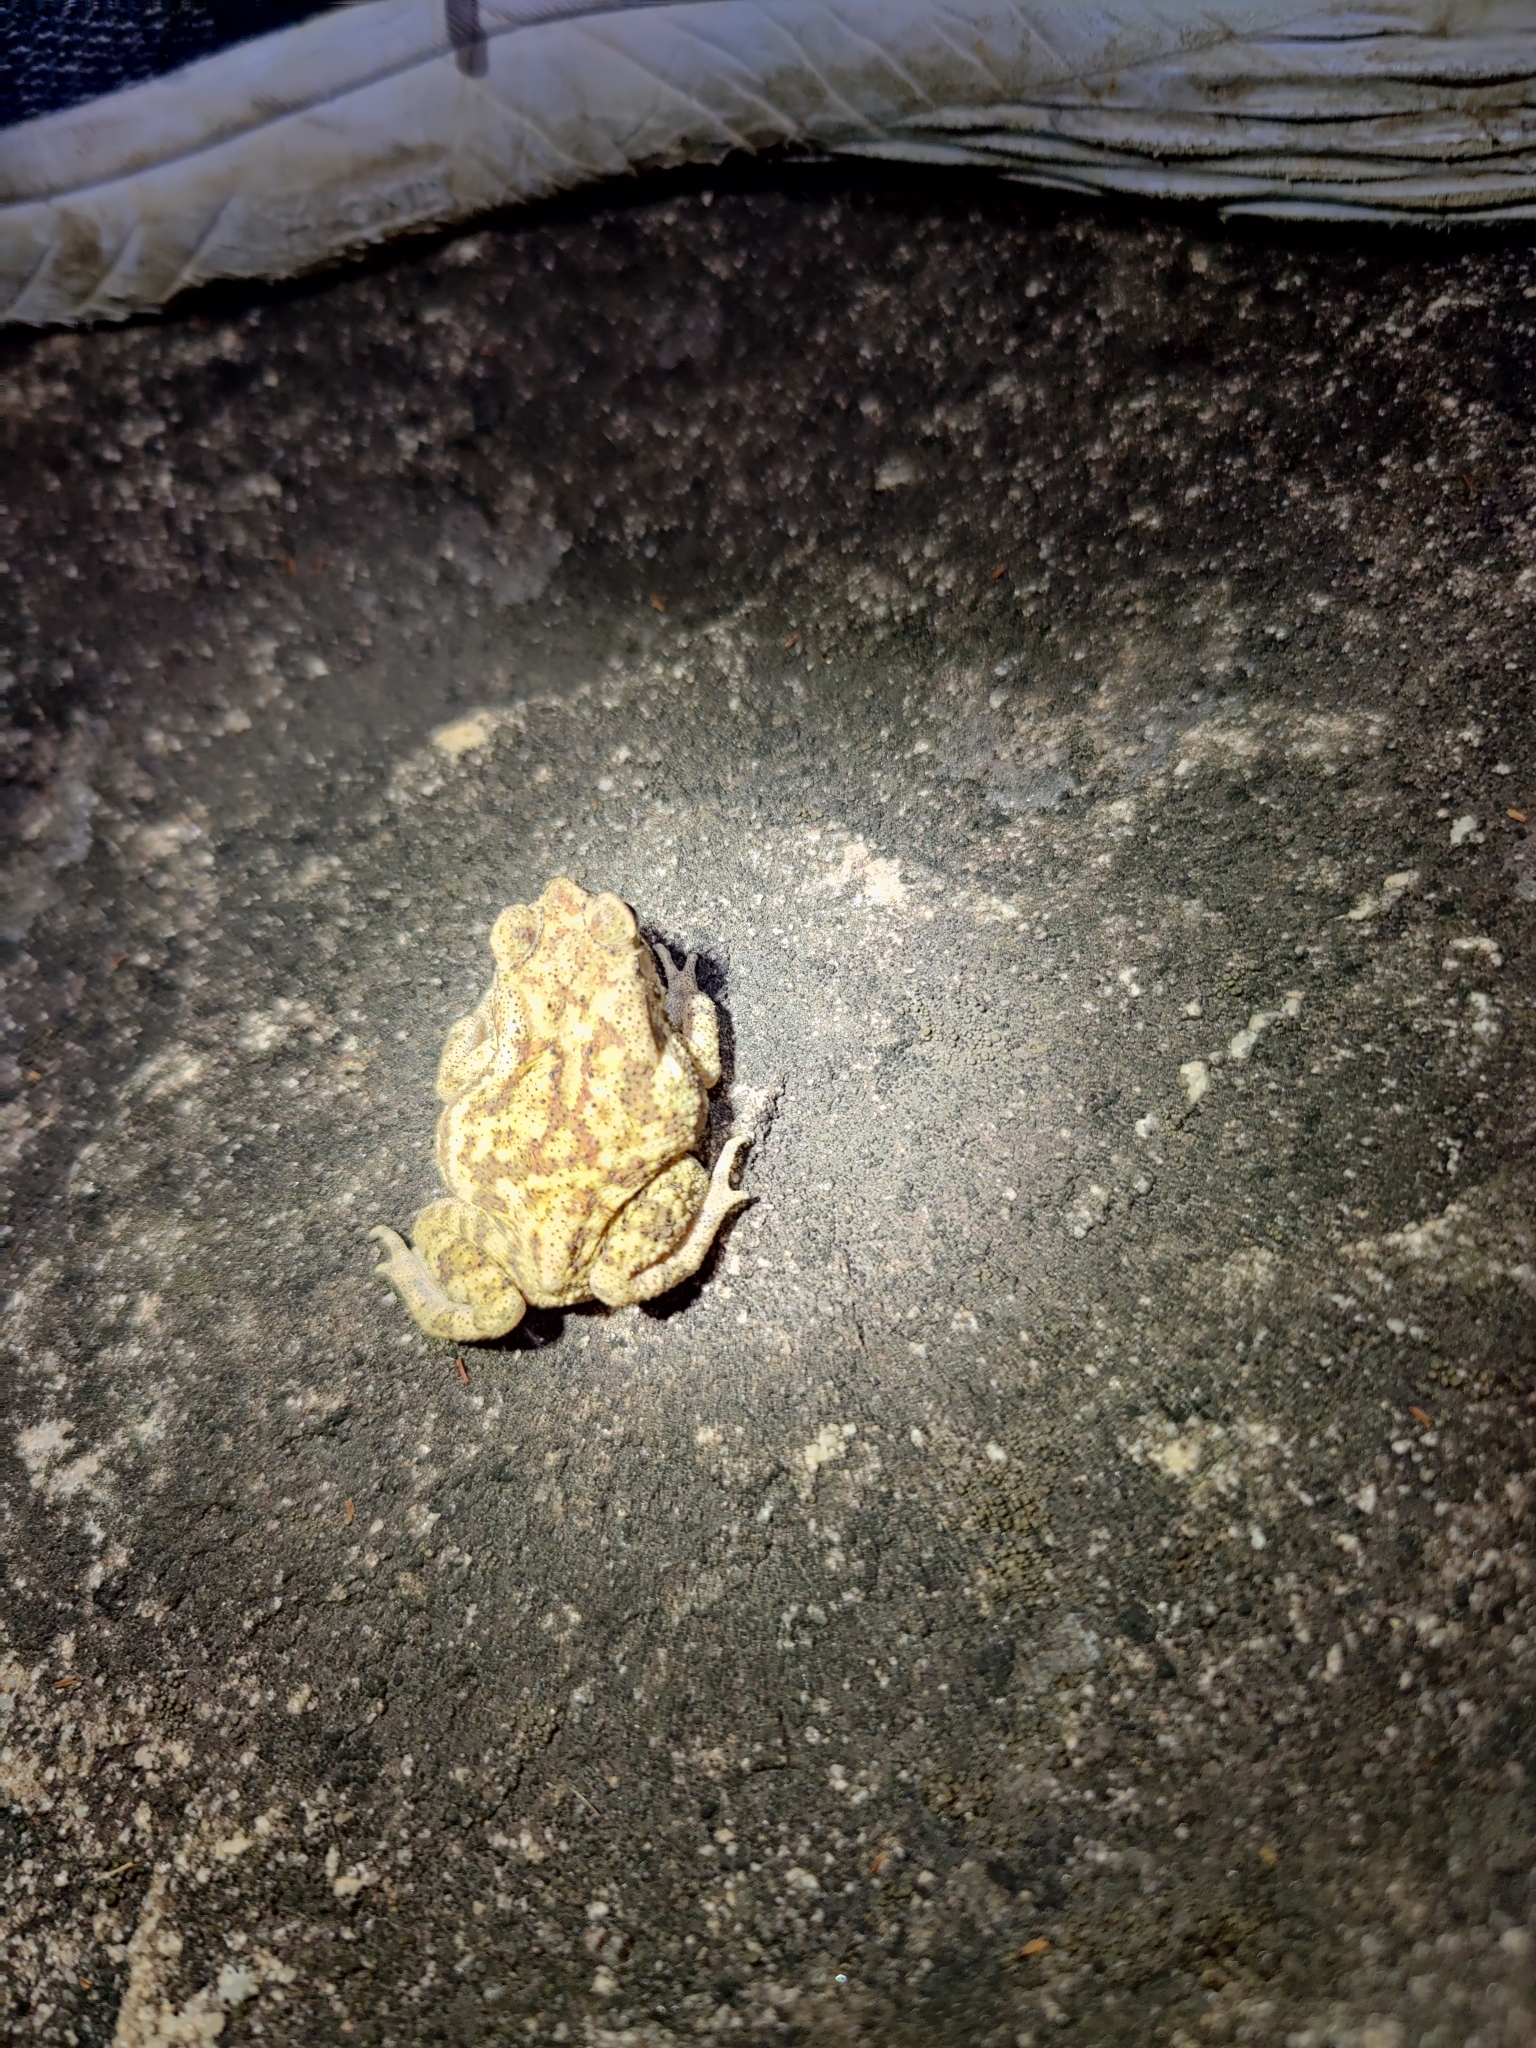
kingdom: Animalia
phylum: Chordata
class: Amphibia
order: Anura
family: Bufonidae
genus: Duttaphrynus
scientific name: Duttaphrynus melanostictus
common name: Common sunda toad
